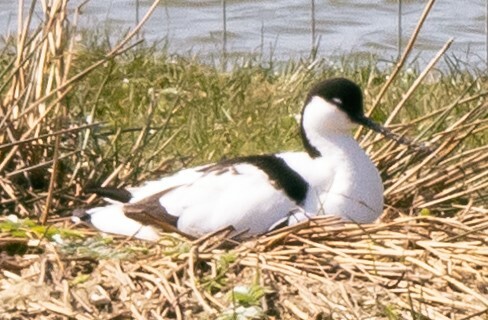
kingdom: Animalia
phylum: Chordata
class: Aves
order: Charadriiformes
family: Recurvirostridae
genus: Recurvirostra
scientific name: Recurvirostra avosetta
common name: Pied avocet
